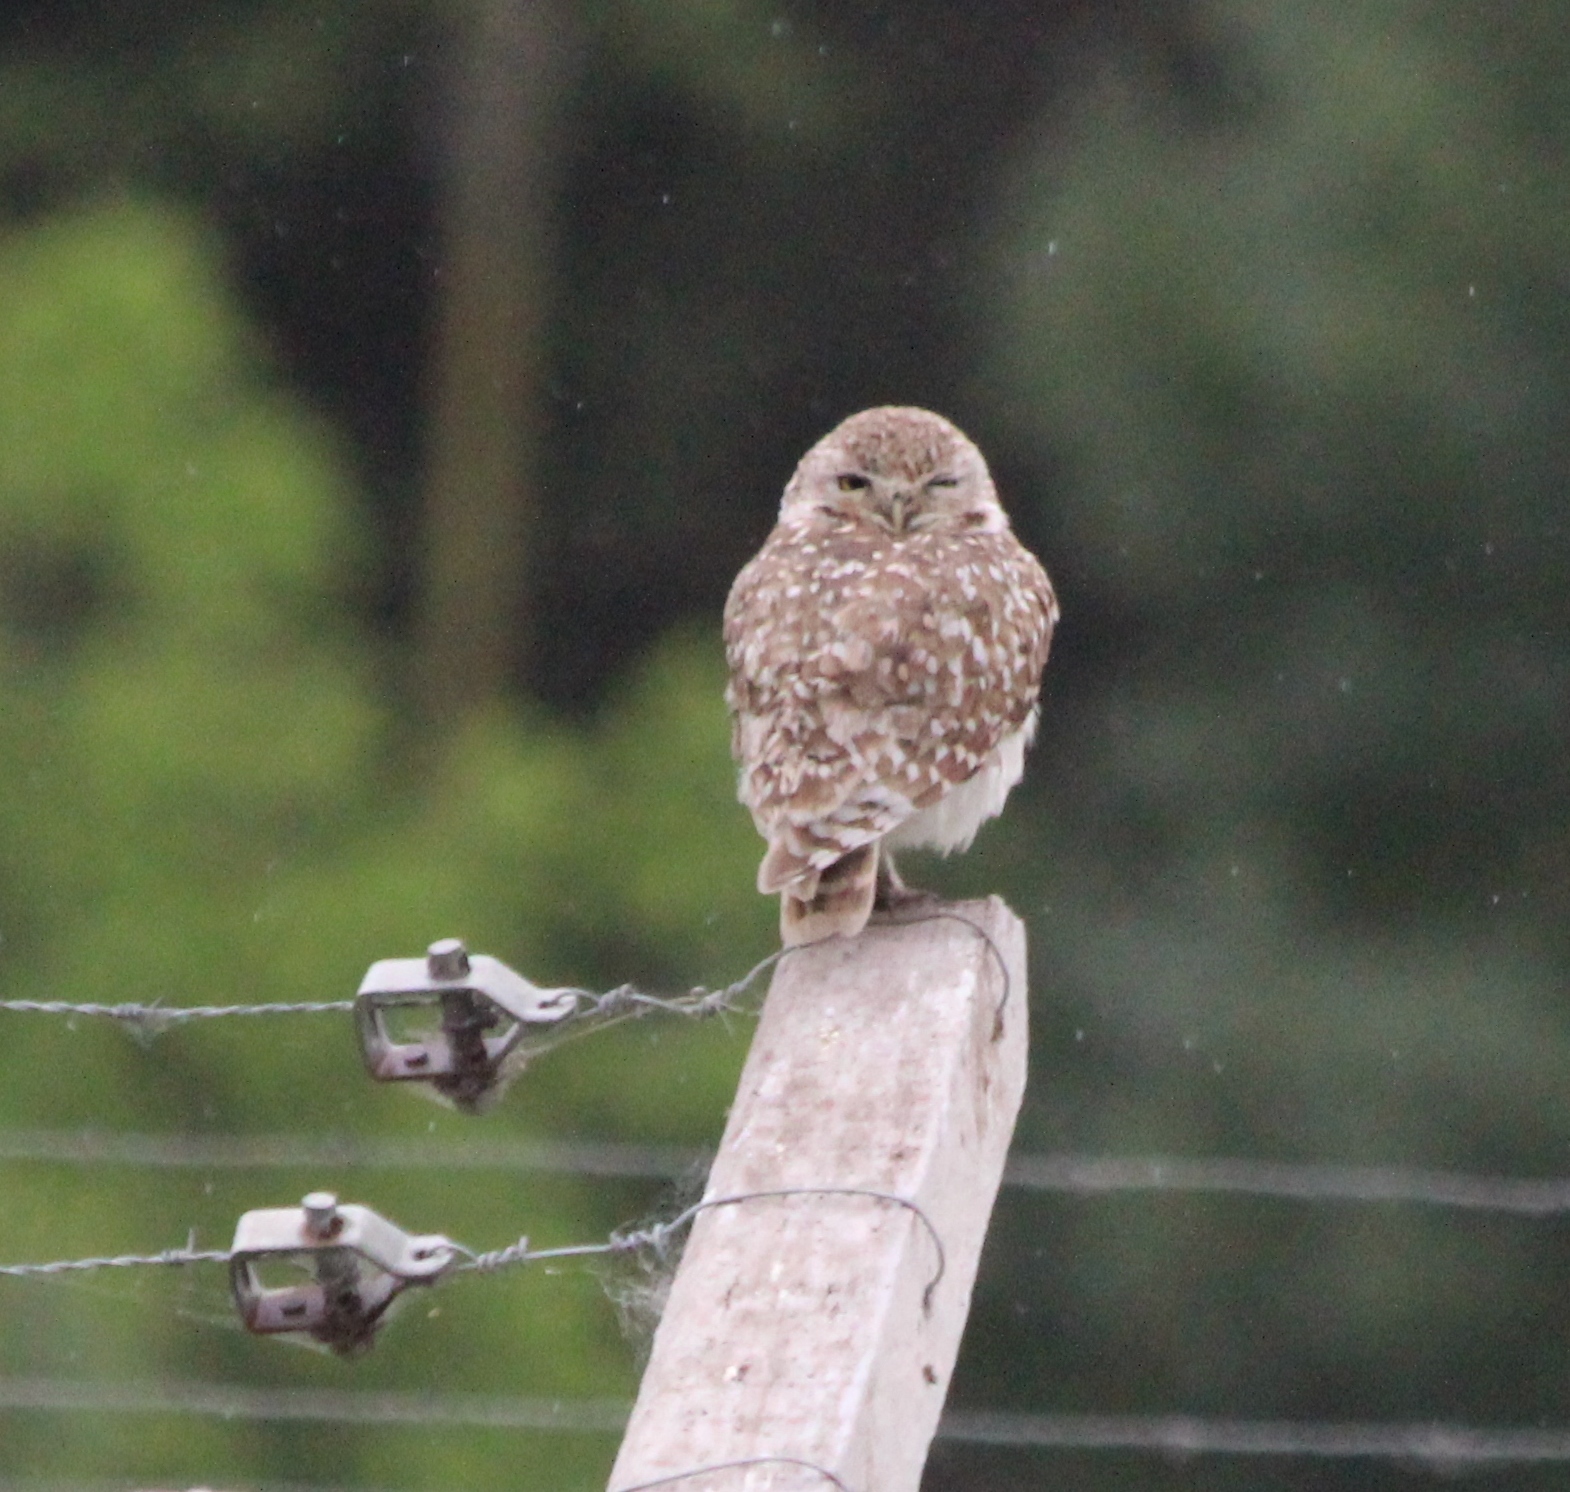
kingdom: Animalia
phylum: Chordata
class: Aves
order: Strigiformes
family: Strigidae
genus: Athene
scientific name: Athene cunicularia
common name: Burrowing owl
